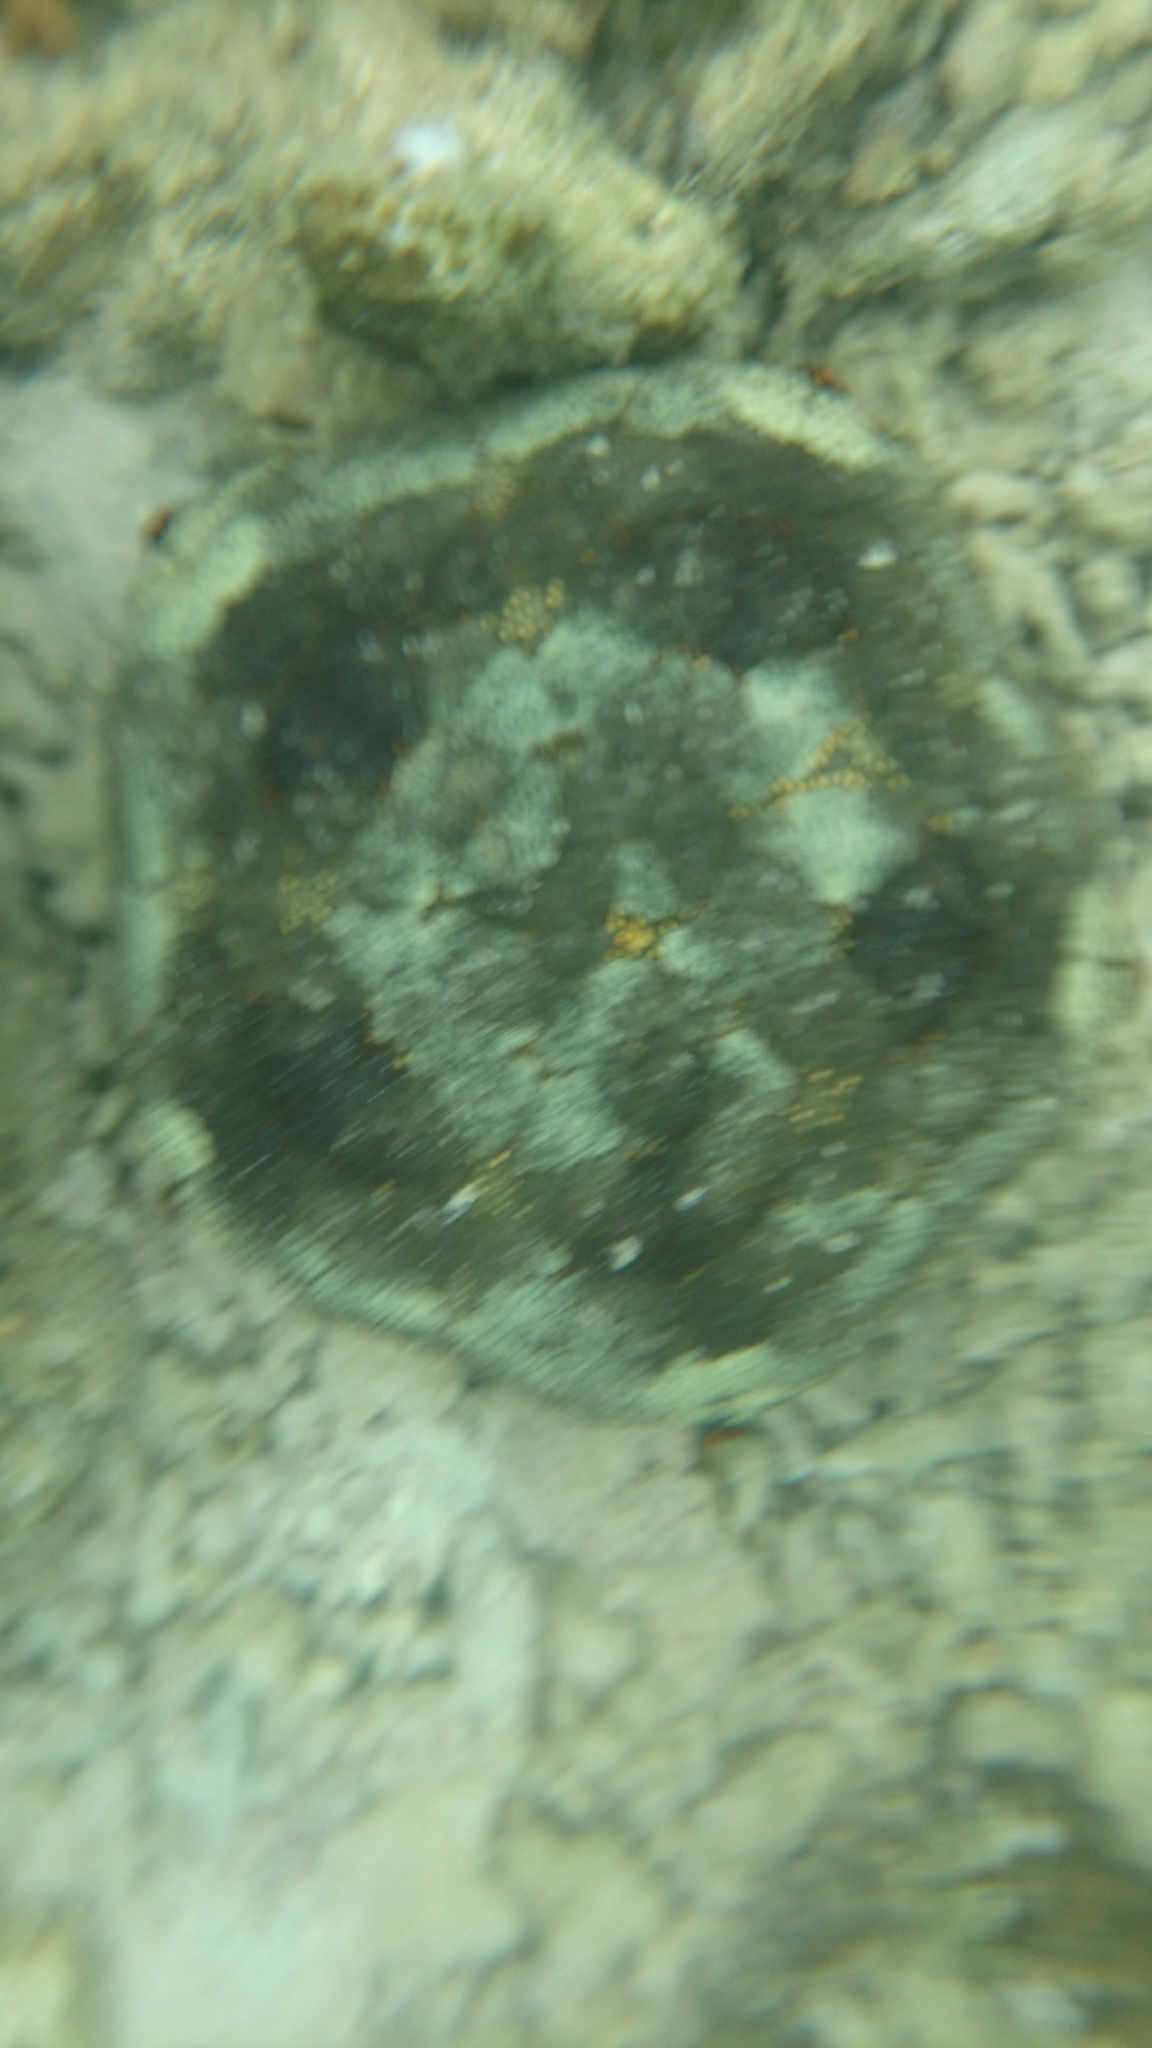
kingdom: Animalia
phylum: Echinodermata
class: Asteroidea
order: Valvatida
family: Oreasteridae
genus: Culcita
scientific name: Culcita novaeguineae
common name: Cushion star
